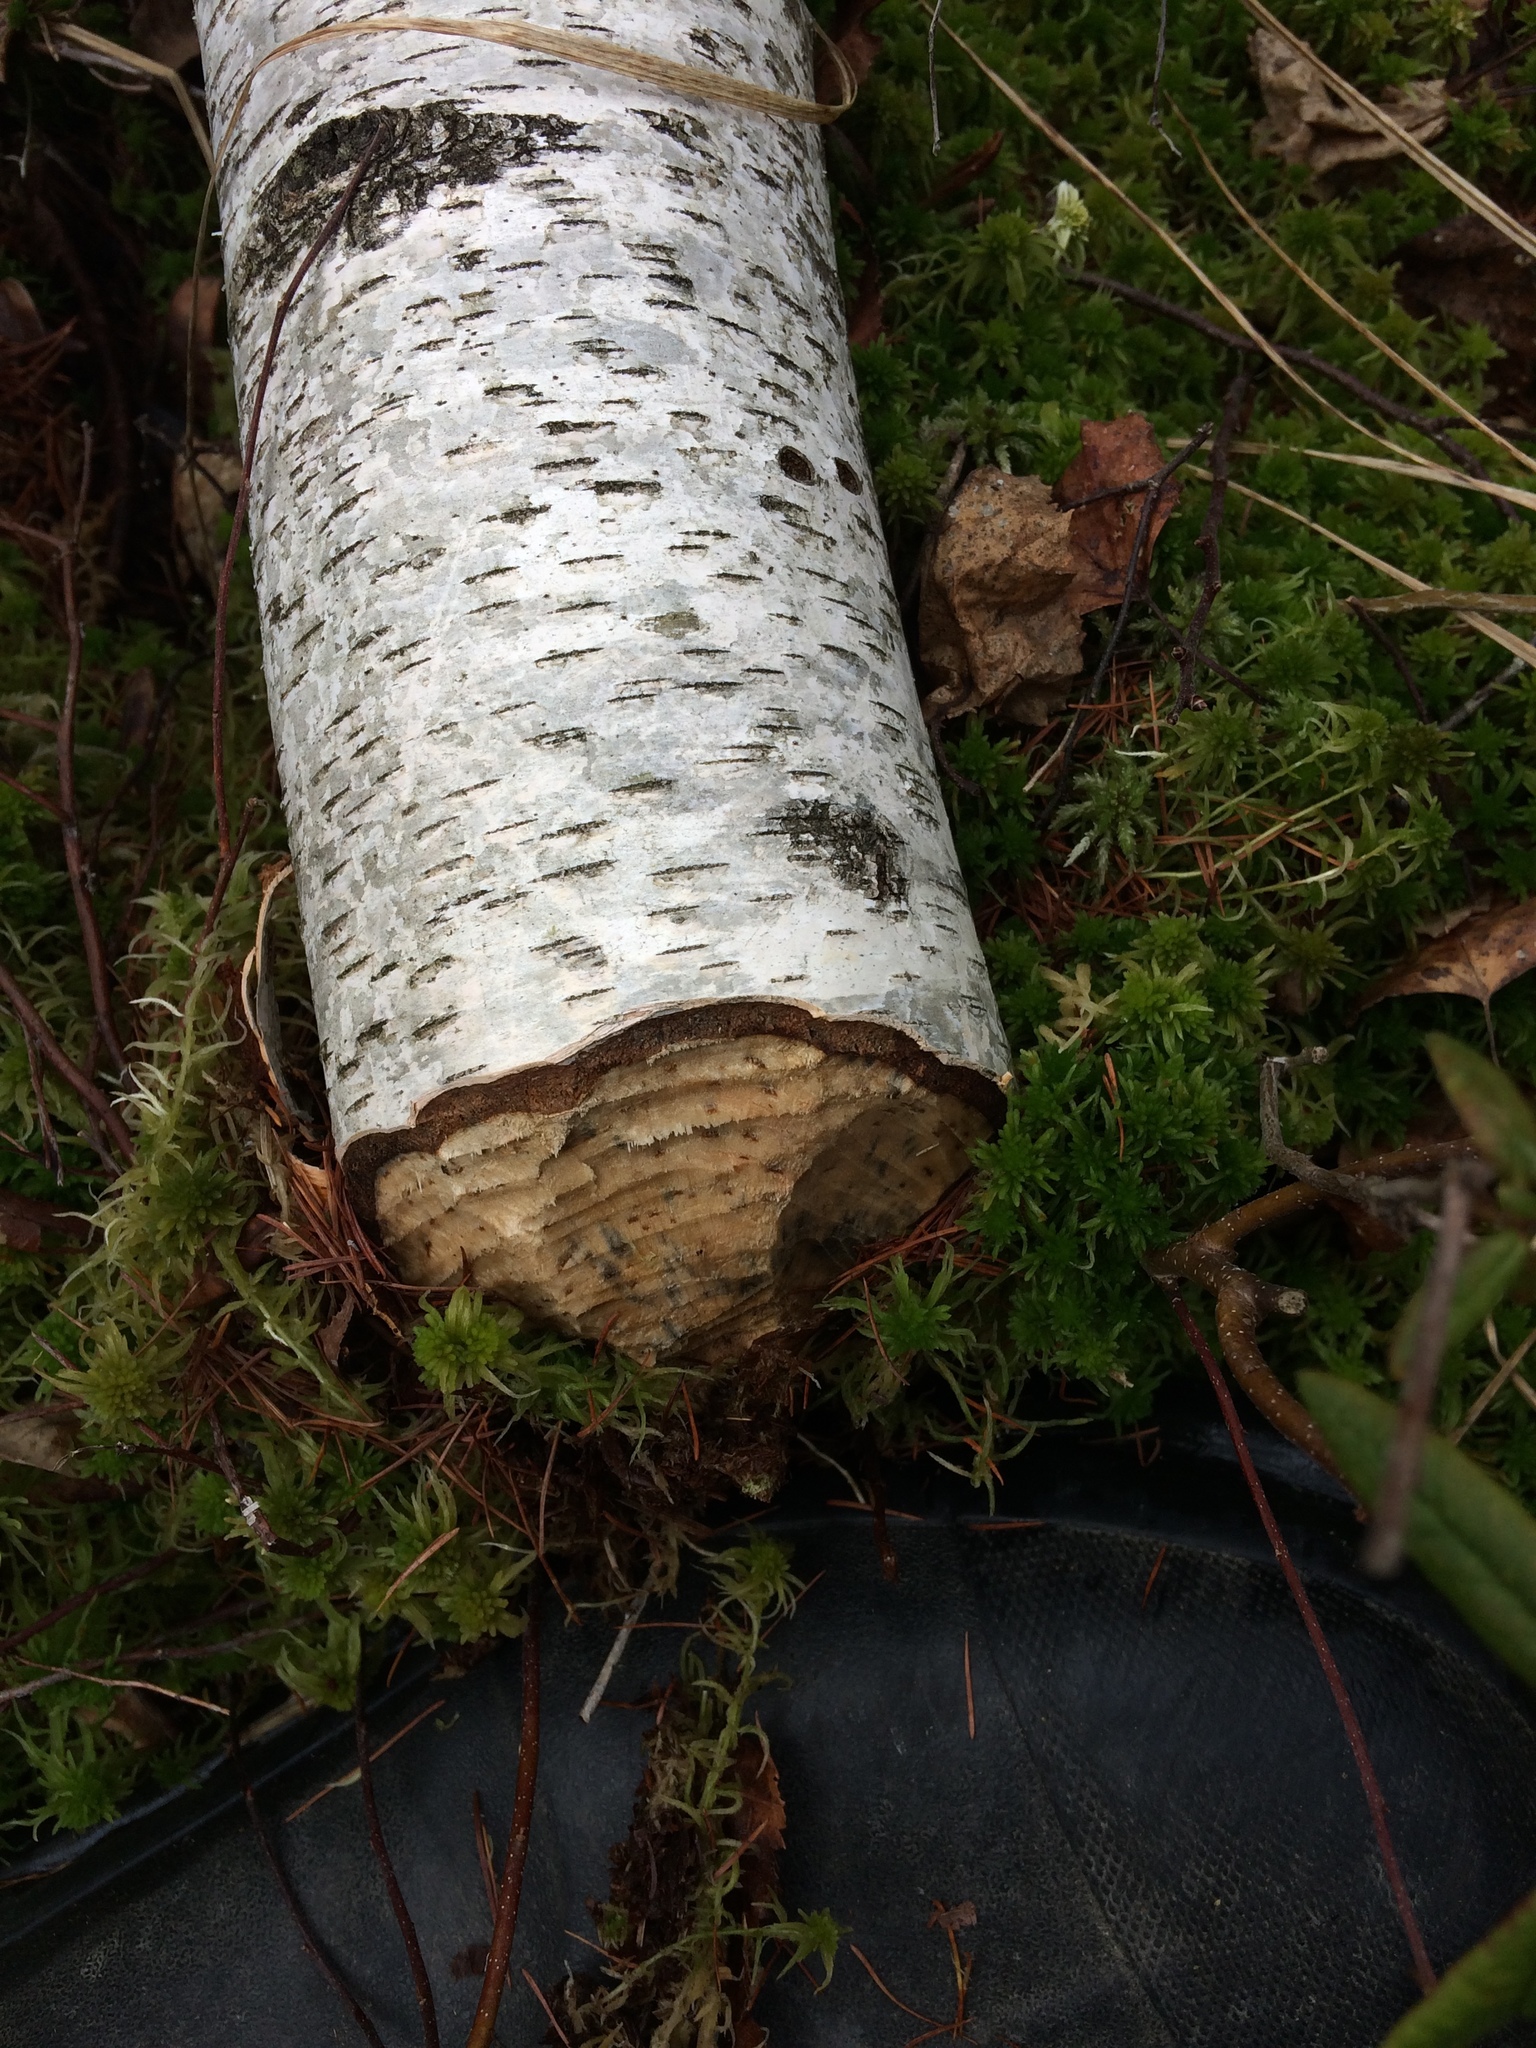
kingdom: Animalia
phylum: Chordata
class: Mammalia
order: Rodentia
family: Castoridae
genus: Castor
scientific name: Castor canadensis
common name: American beaver
